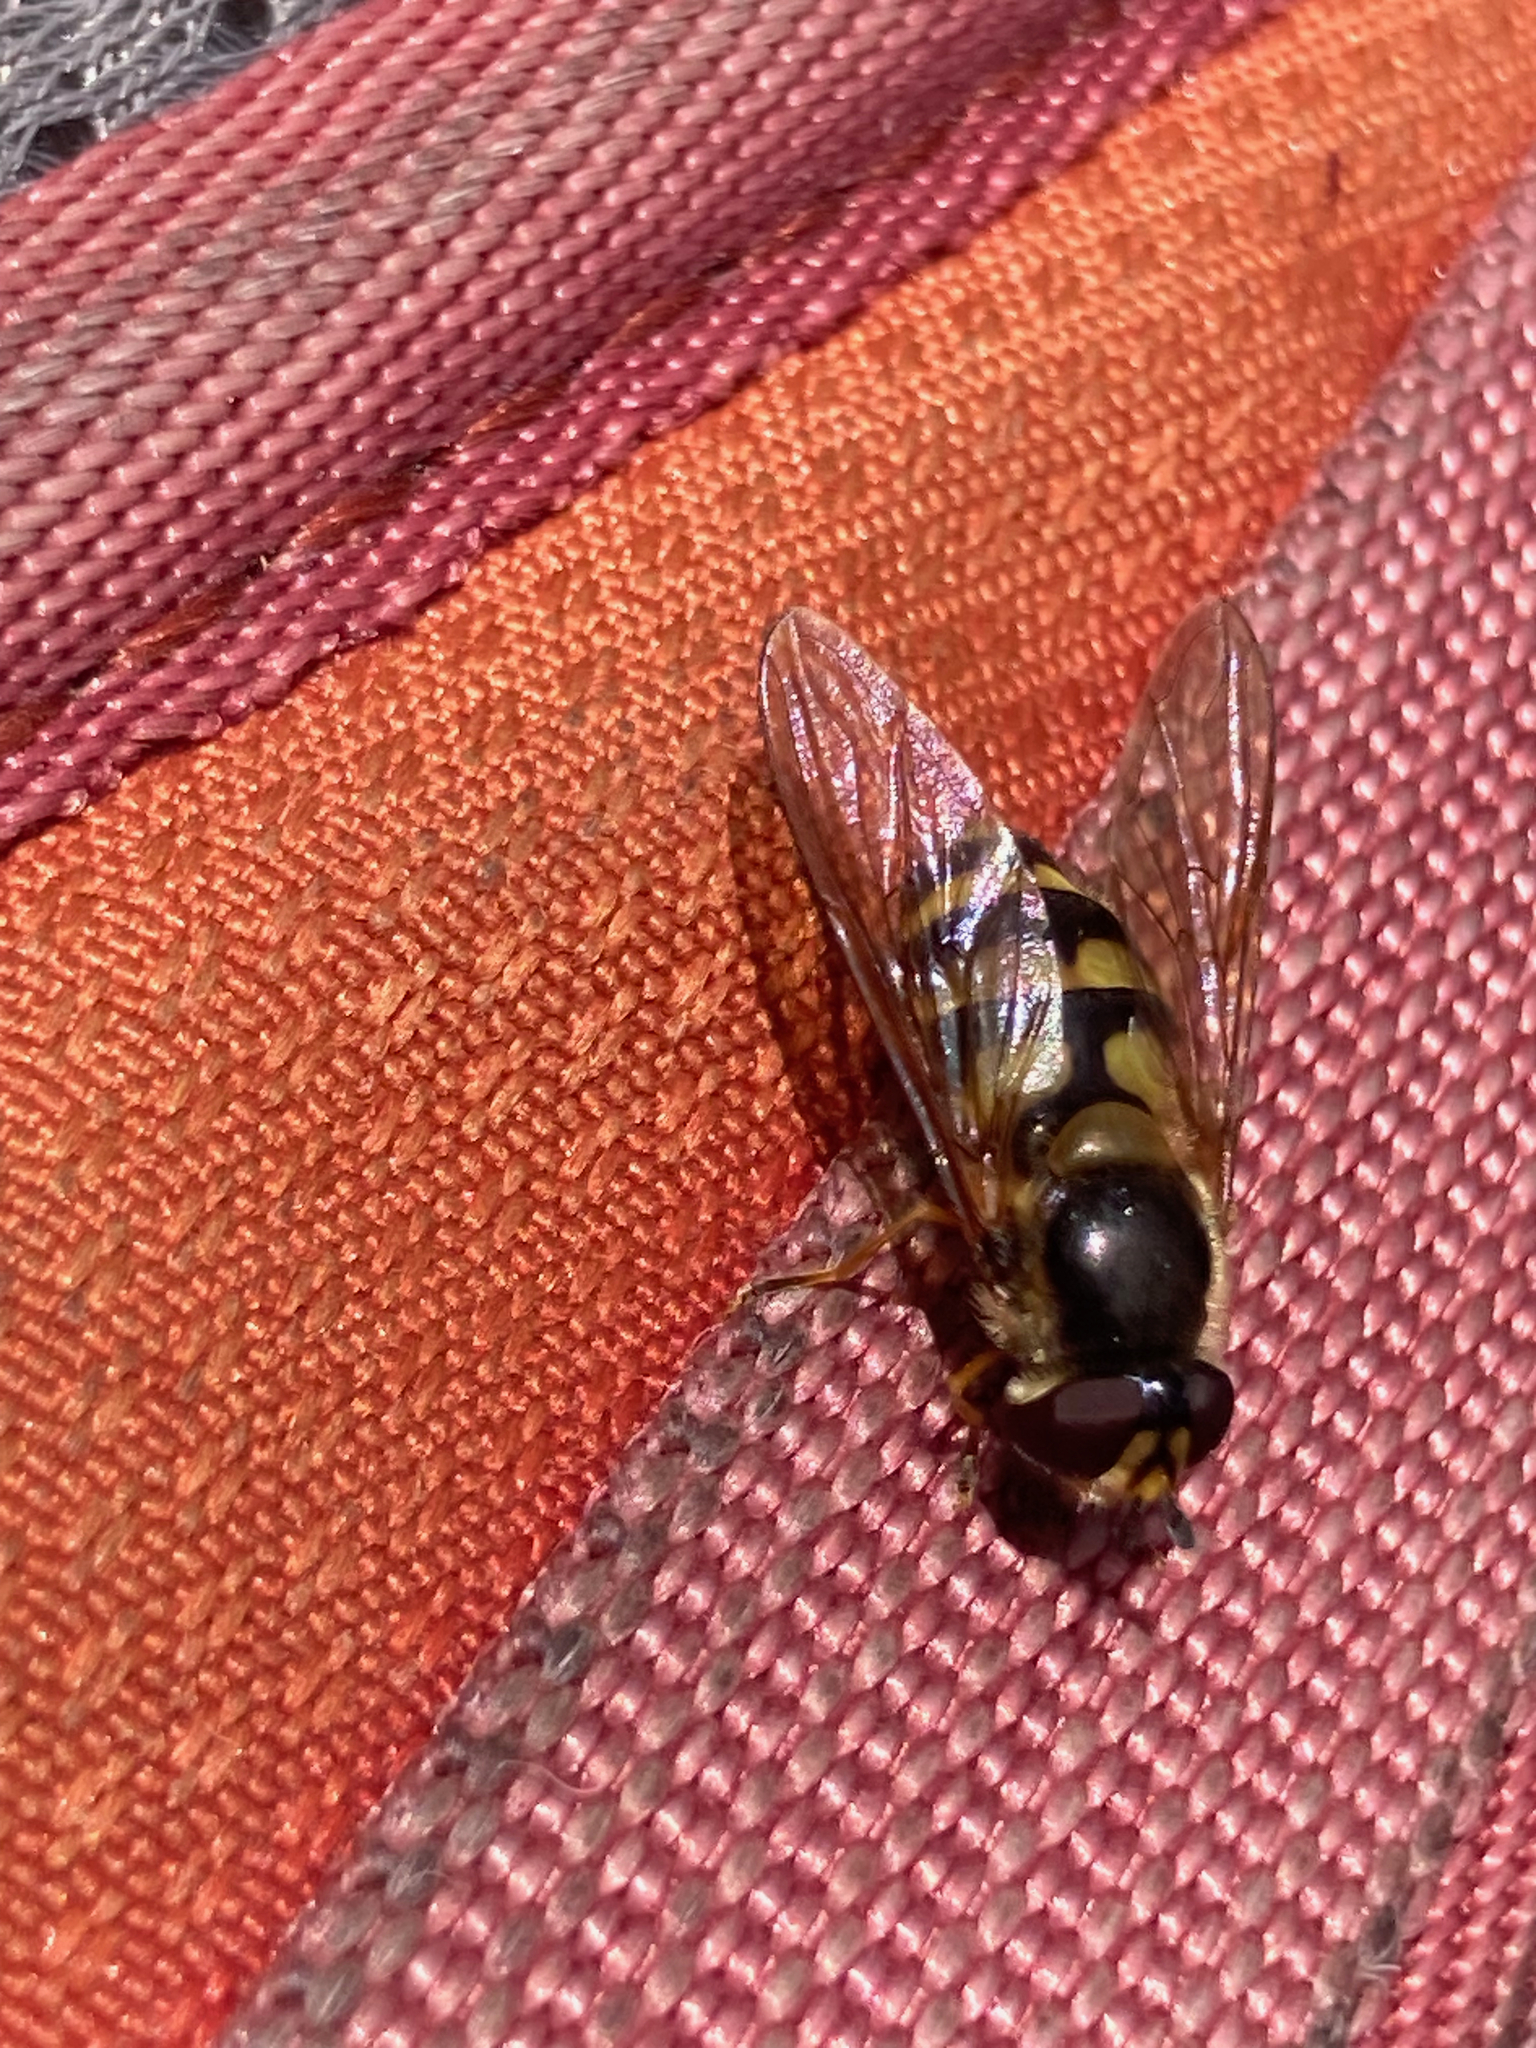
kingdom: Animalia
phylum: Arthropoda
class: Insecta
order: Diptera
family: Syrphidae
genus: Megasyrphus
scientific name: Megasyrphus laxus
